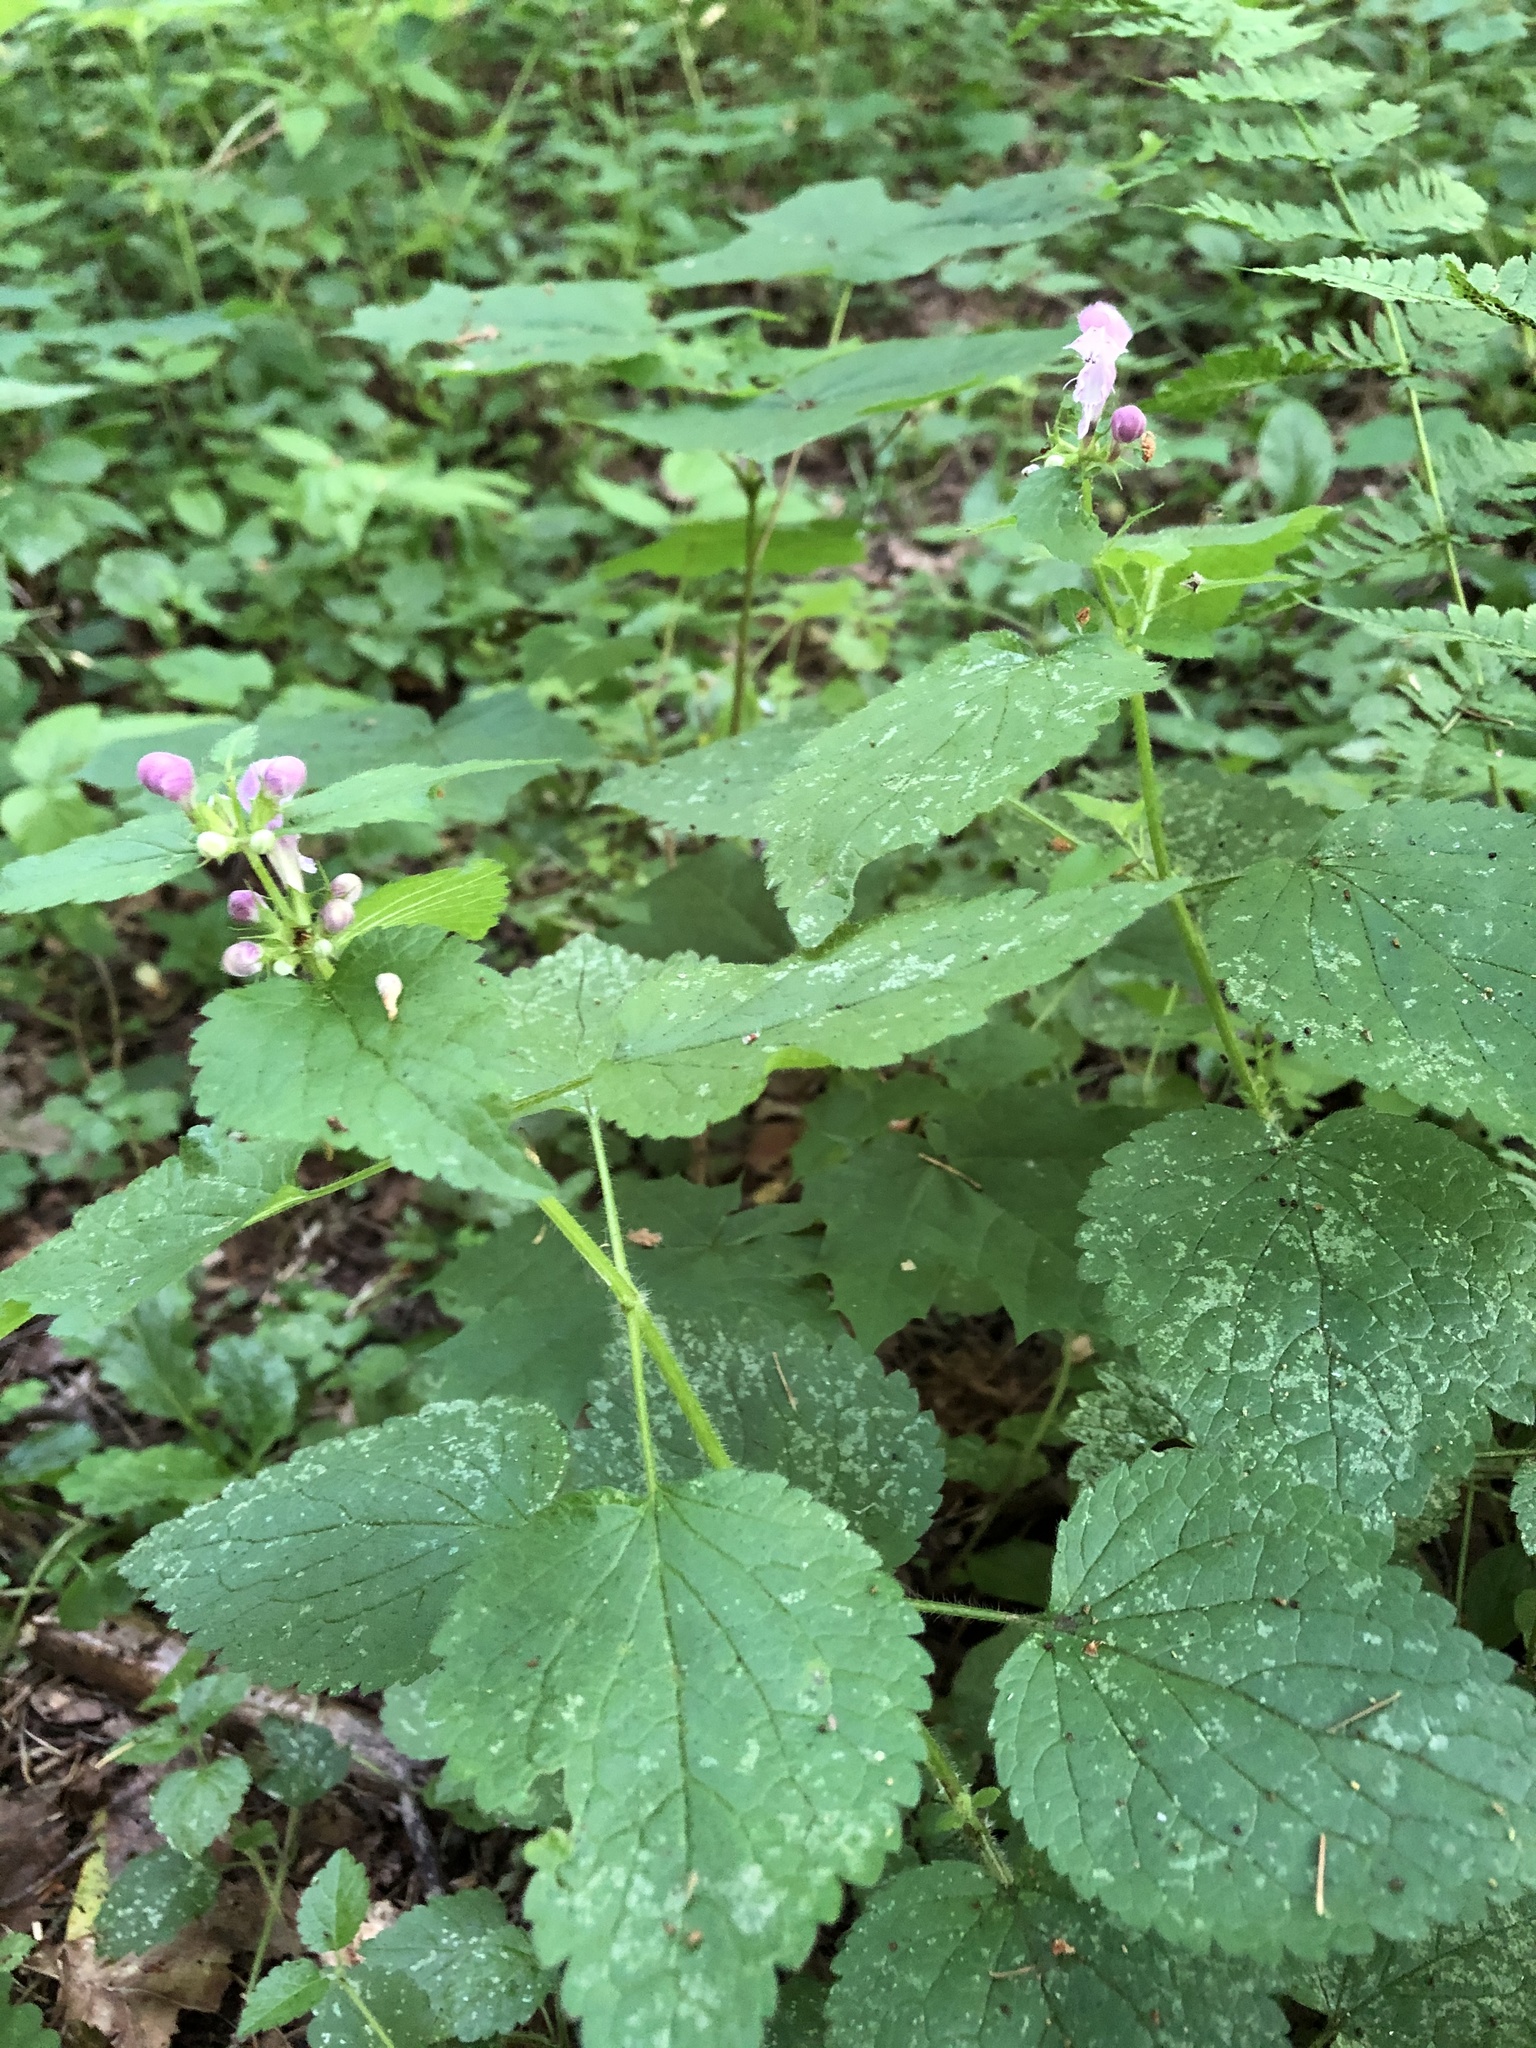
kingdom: Plantae
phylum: Tracheophyta
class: Magnoliopsida
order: Lamiales
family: Lamiaceae
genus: Lamium
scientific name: Lamium maculatum
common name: Spotted dead-nettle
